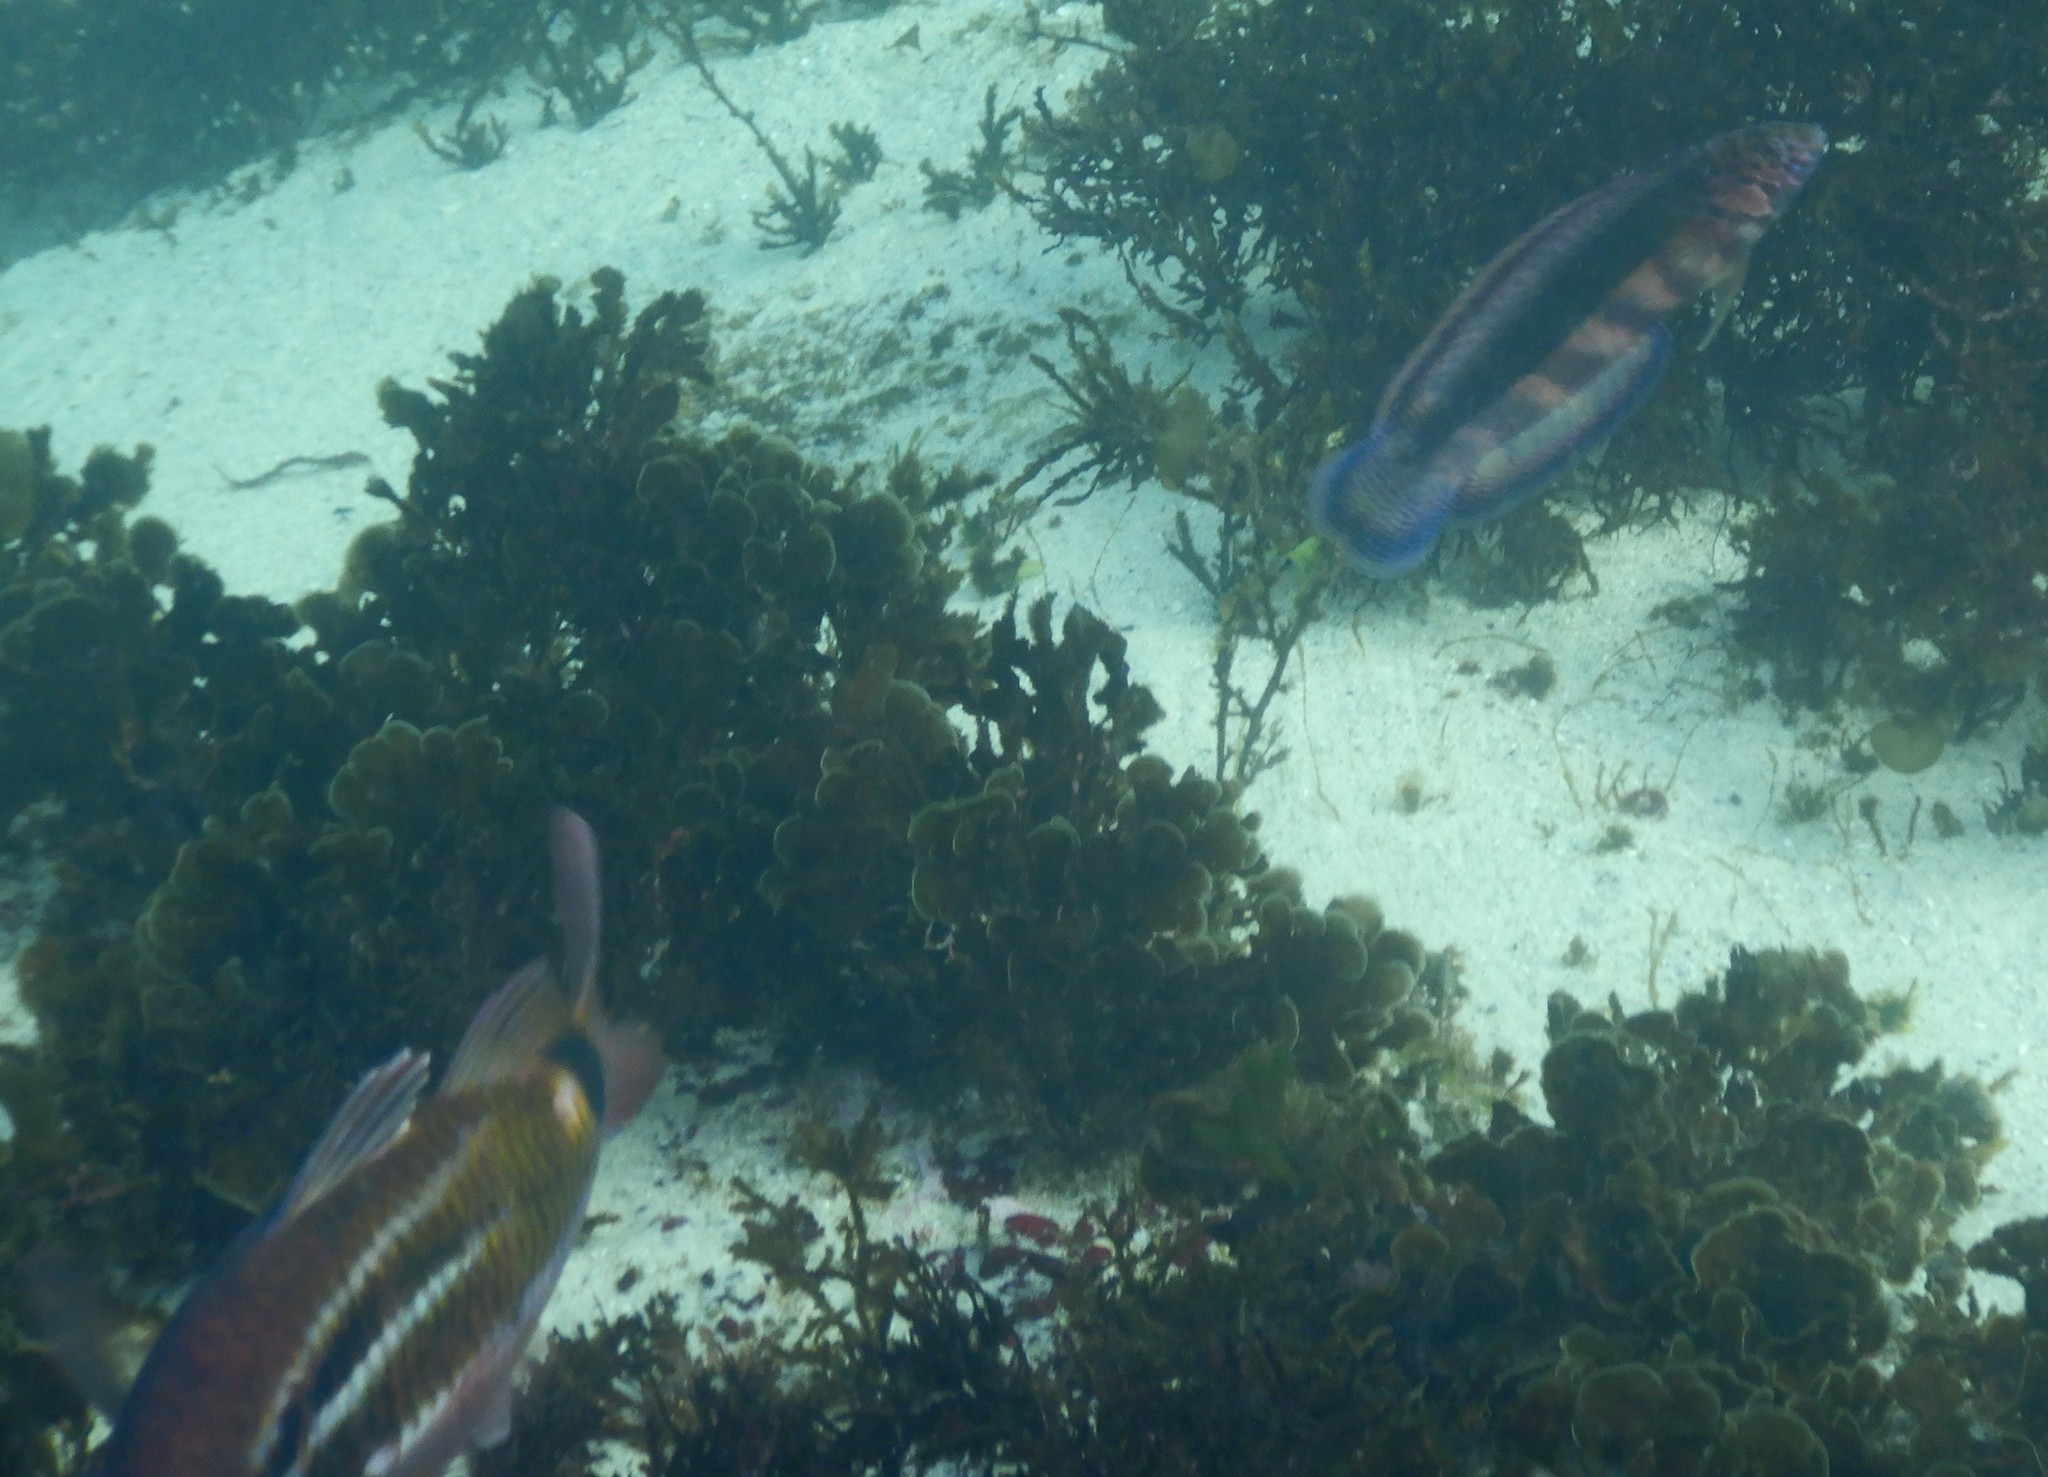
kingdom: Animalia
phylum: Chordata
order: Perciformes
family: Labridae
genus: Eupetrichthys
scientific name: Eupetrichthys angustipes
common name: Snake-skin wrasse
